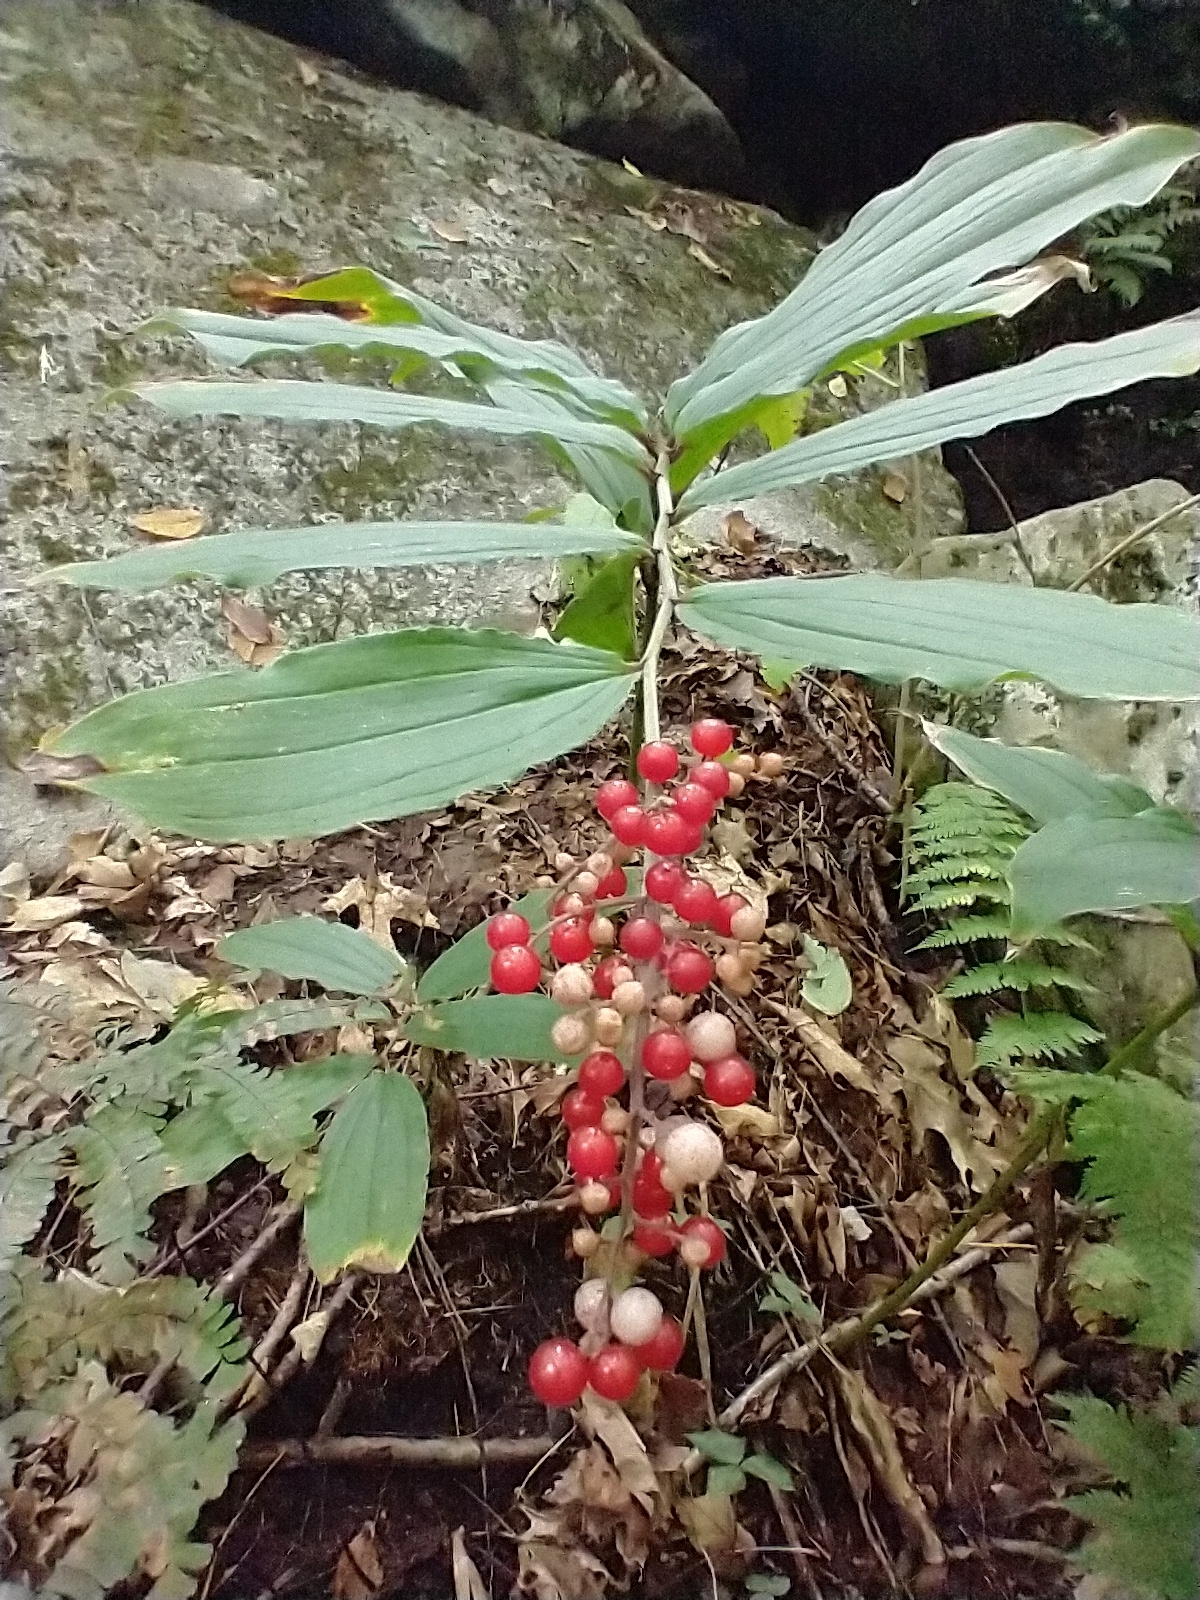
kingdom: Plantae
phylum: Tracheophyta
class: Liliopsida
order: Asparagales
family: Asparagaceae
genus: Maianthemum
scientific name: Maianthemum racemosum
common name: False spikenard
